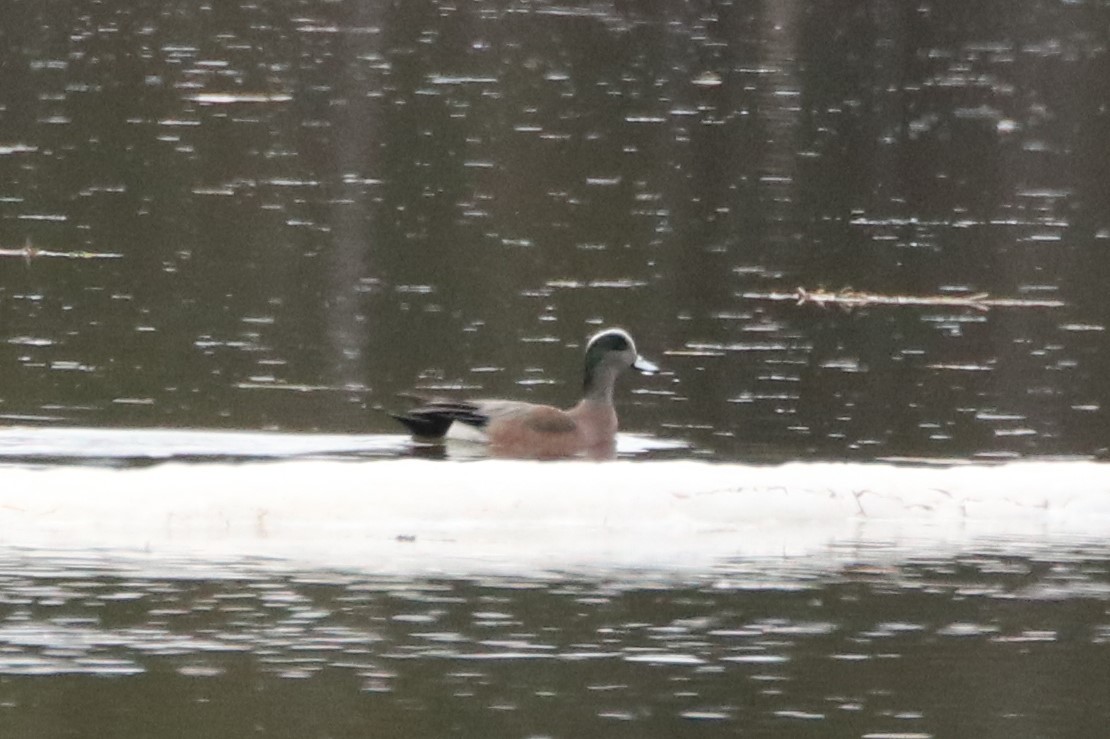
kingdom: Animalia
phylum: Chordata
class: Aves
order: Anseriformes
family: Anatidae
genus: Mareca
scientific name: Mareca americana
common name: American wigeon
